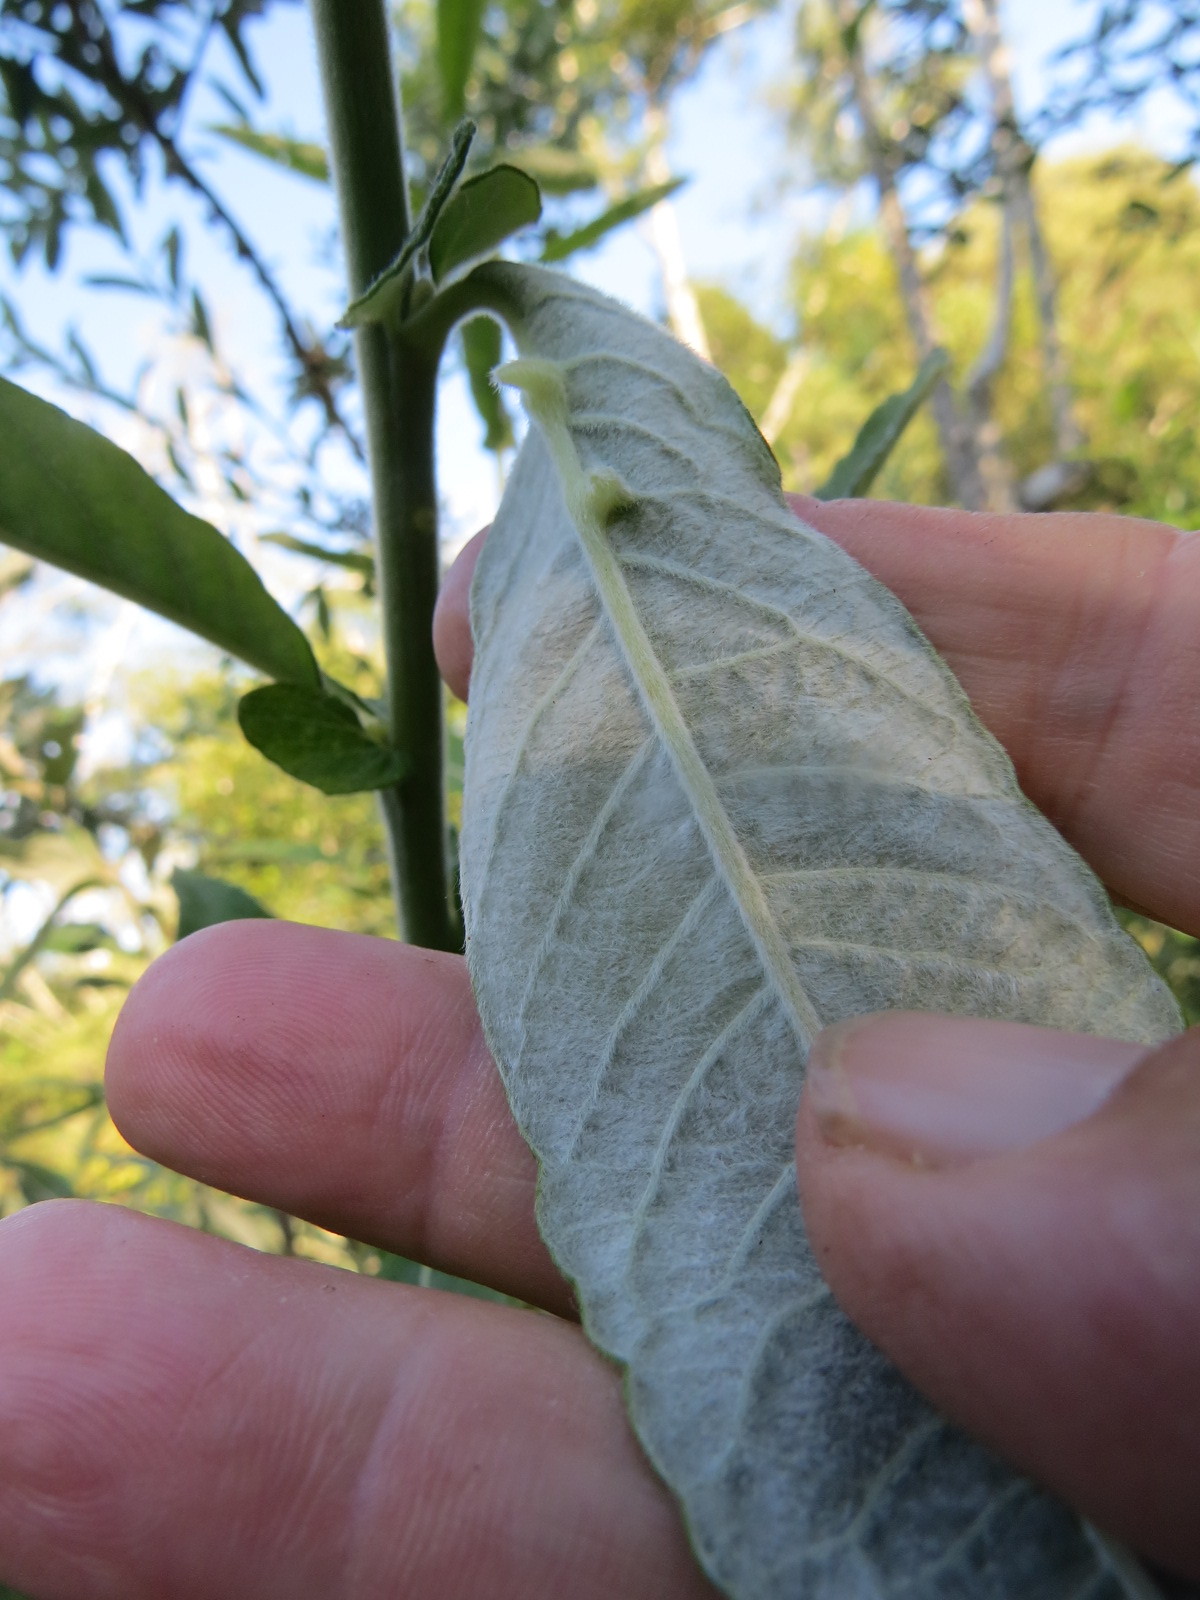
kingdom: Plantae
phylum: Tracheophyta
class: Magnoliopsida
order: Malpighiales
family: Salicaceae
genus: Salix
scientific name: Salix sitchensis
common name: Sitka willow
